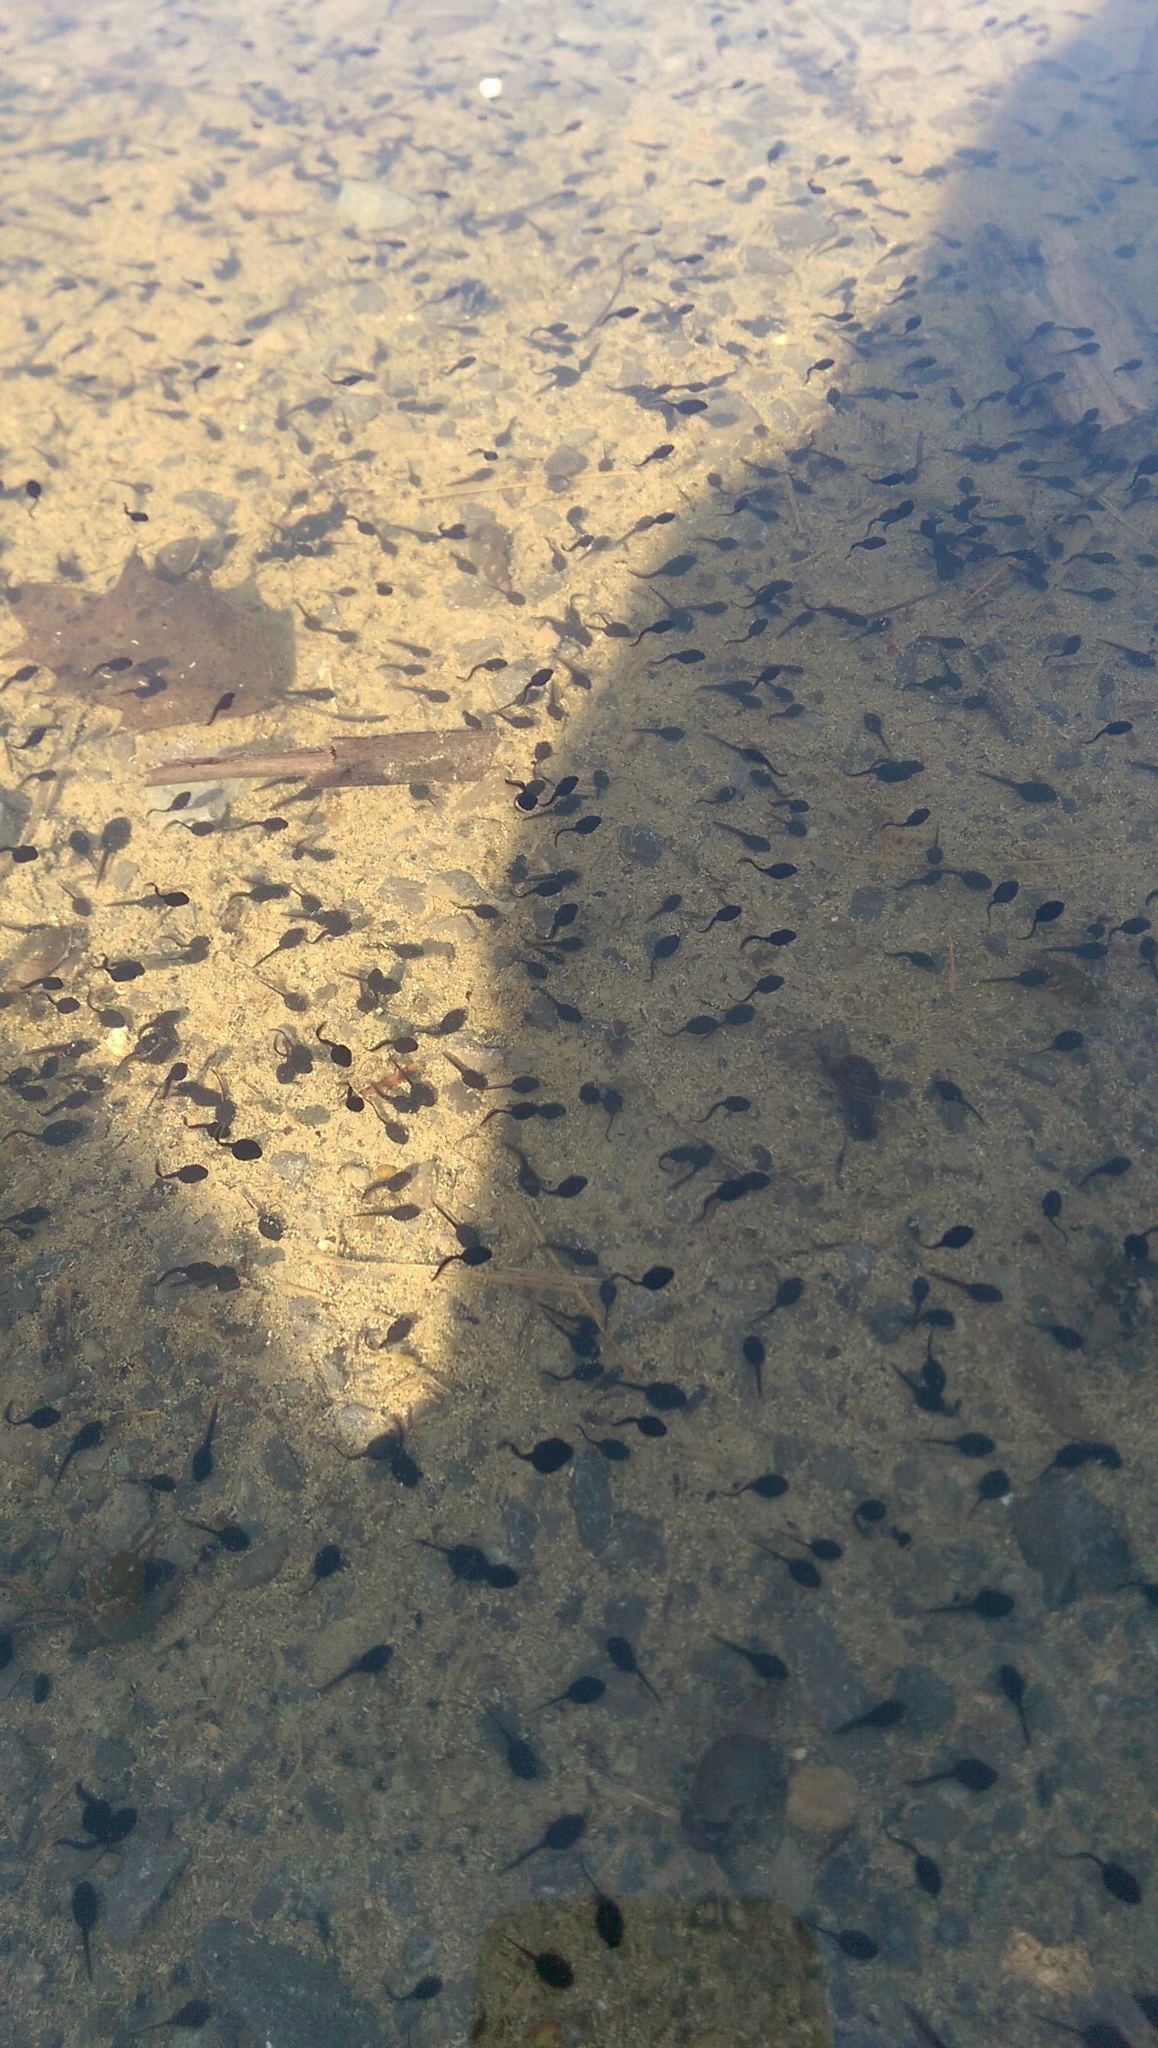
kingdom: Animalia
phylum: Chordata
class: Amphibia
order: Anura
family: Bufonidae
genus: Anaxyrus
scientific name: Anaxyrus americanus
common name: American toad
